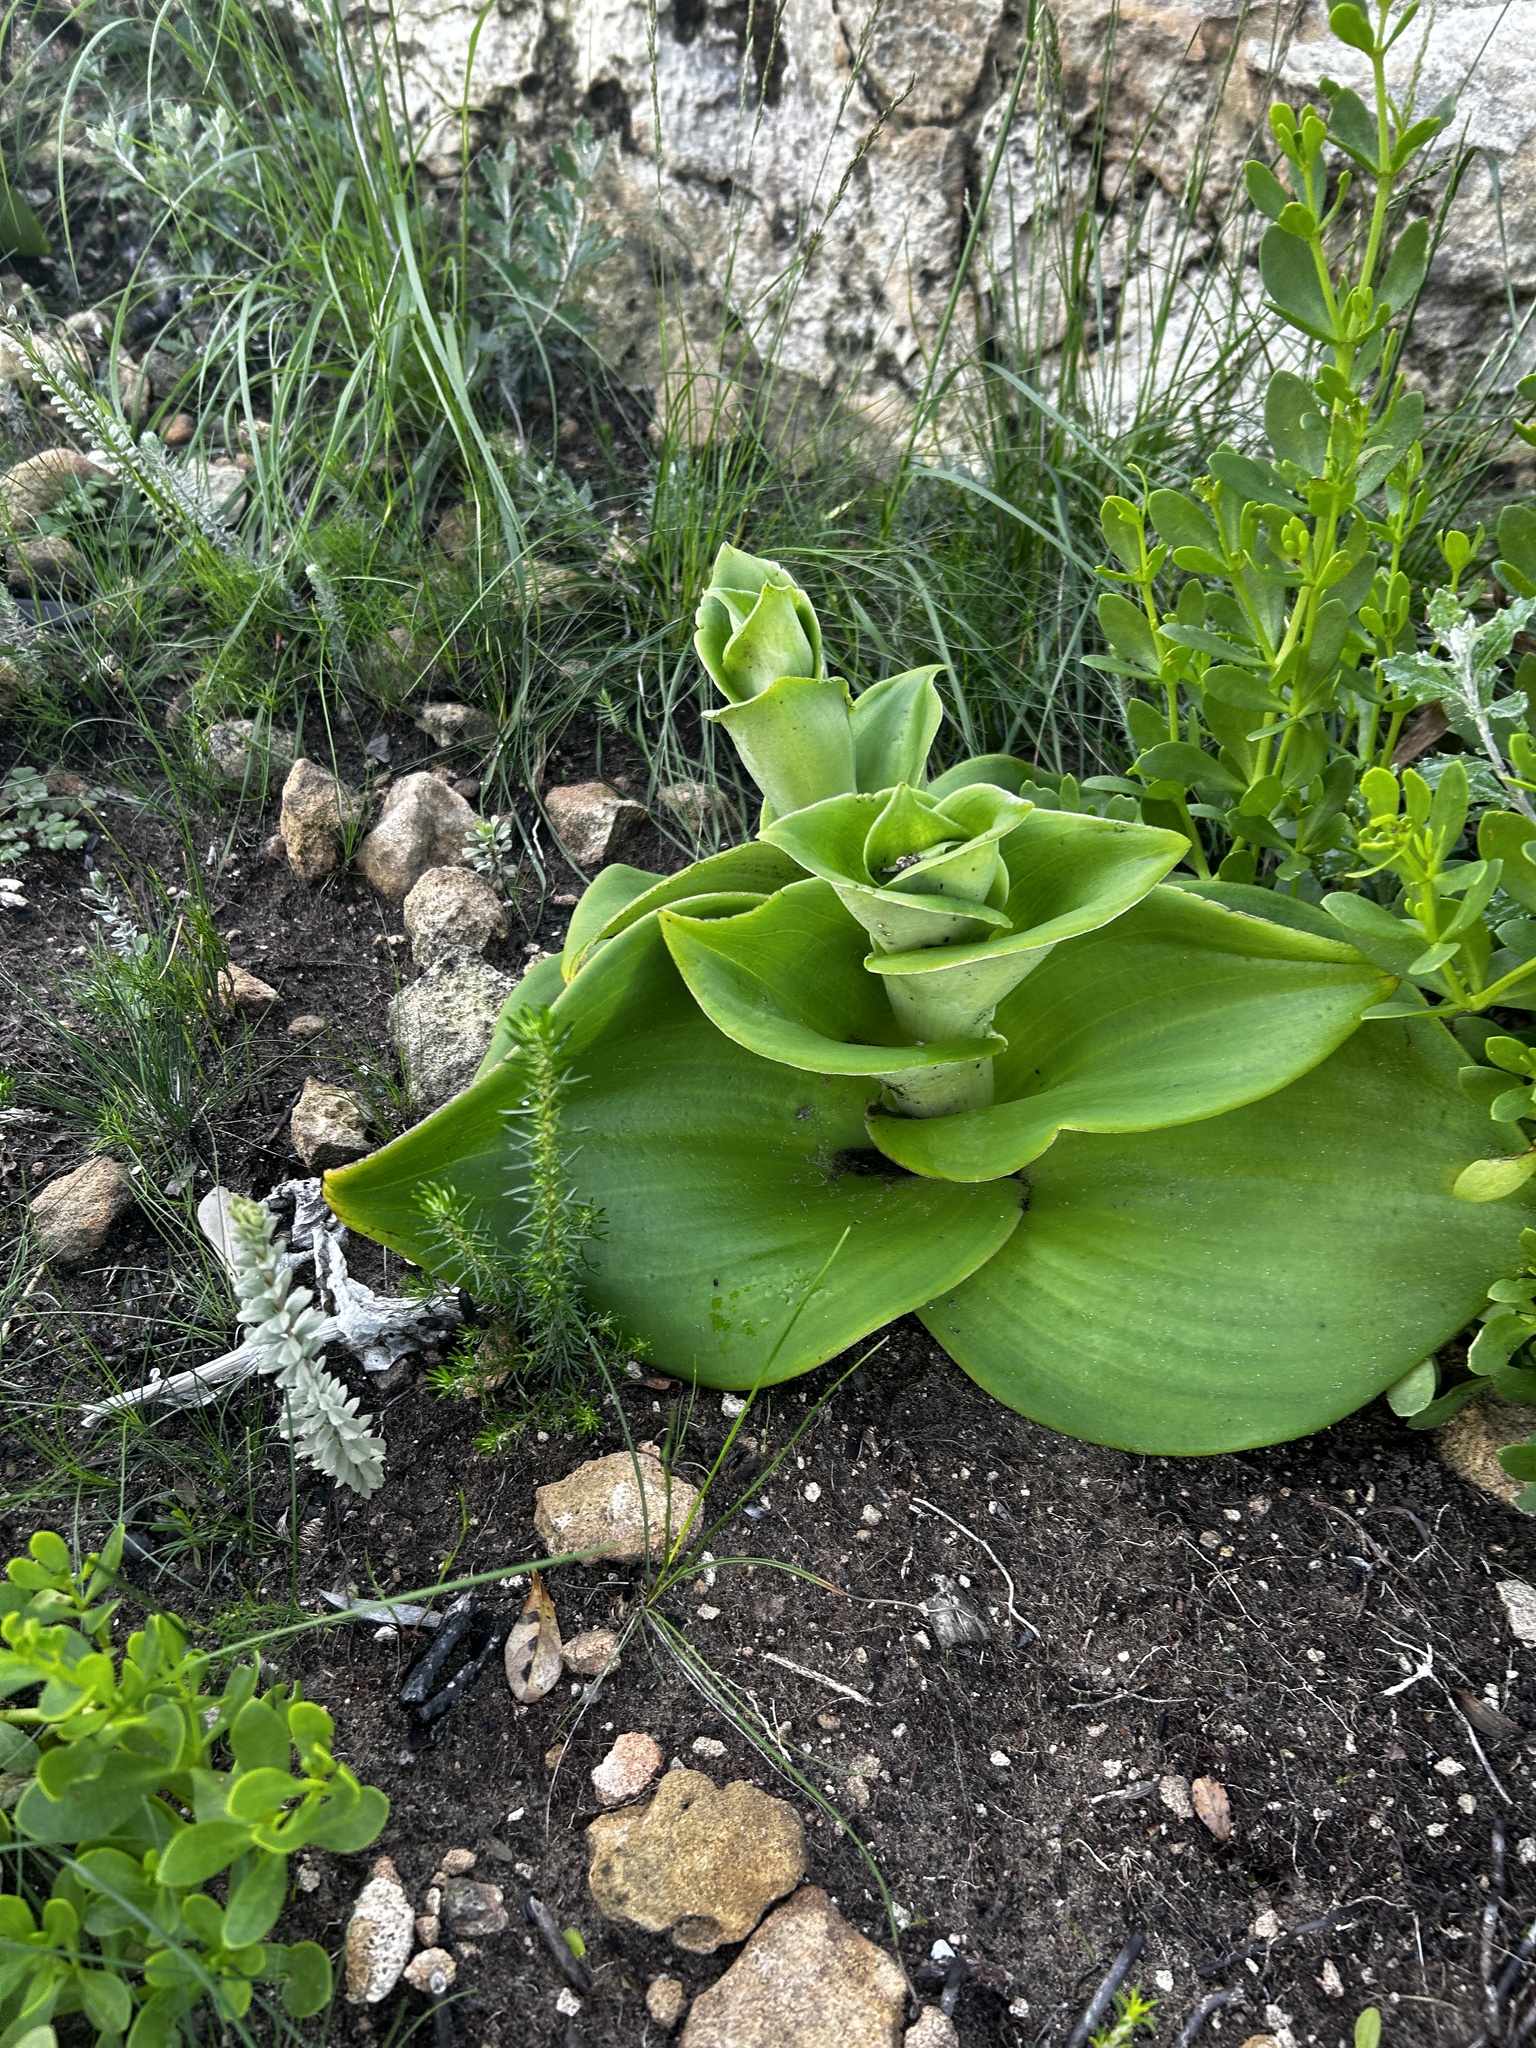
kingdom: Plantae
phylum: Tracheophyta
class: Liliopsida
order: Asparagales
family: Orchidaceae
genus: Satyrium
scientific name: Satyrium carneum
